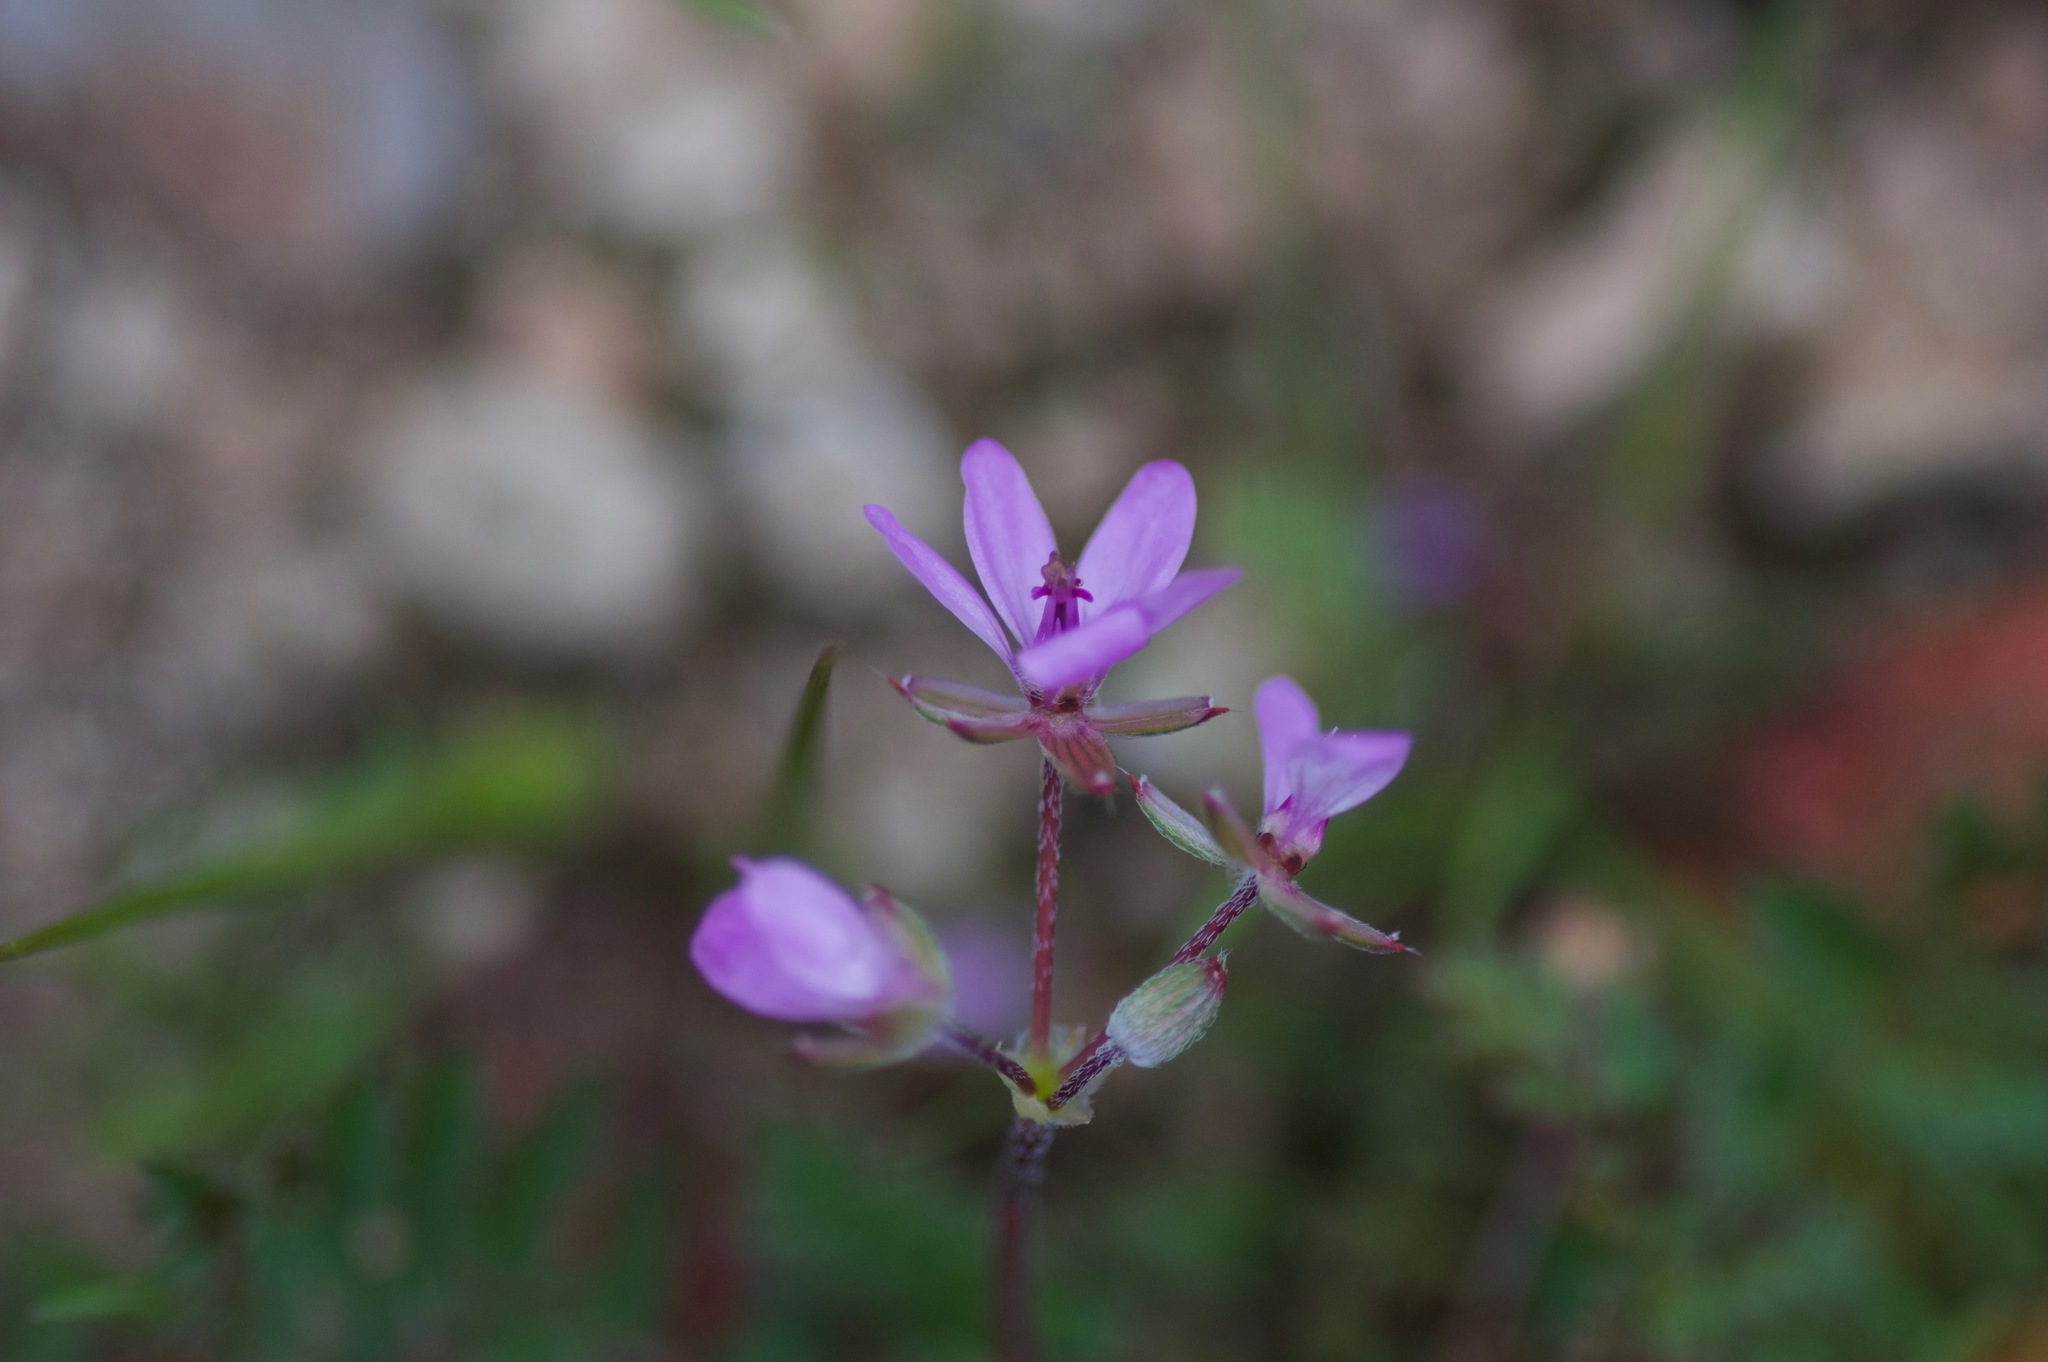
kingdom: Plantae
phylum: Tracheophyta
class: Magnoliopsida
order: Geraniales
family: Geraniaceae
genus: Erodium
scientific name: Erodium cicutarium
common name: Common stork's-bill
